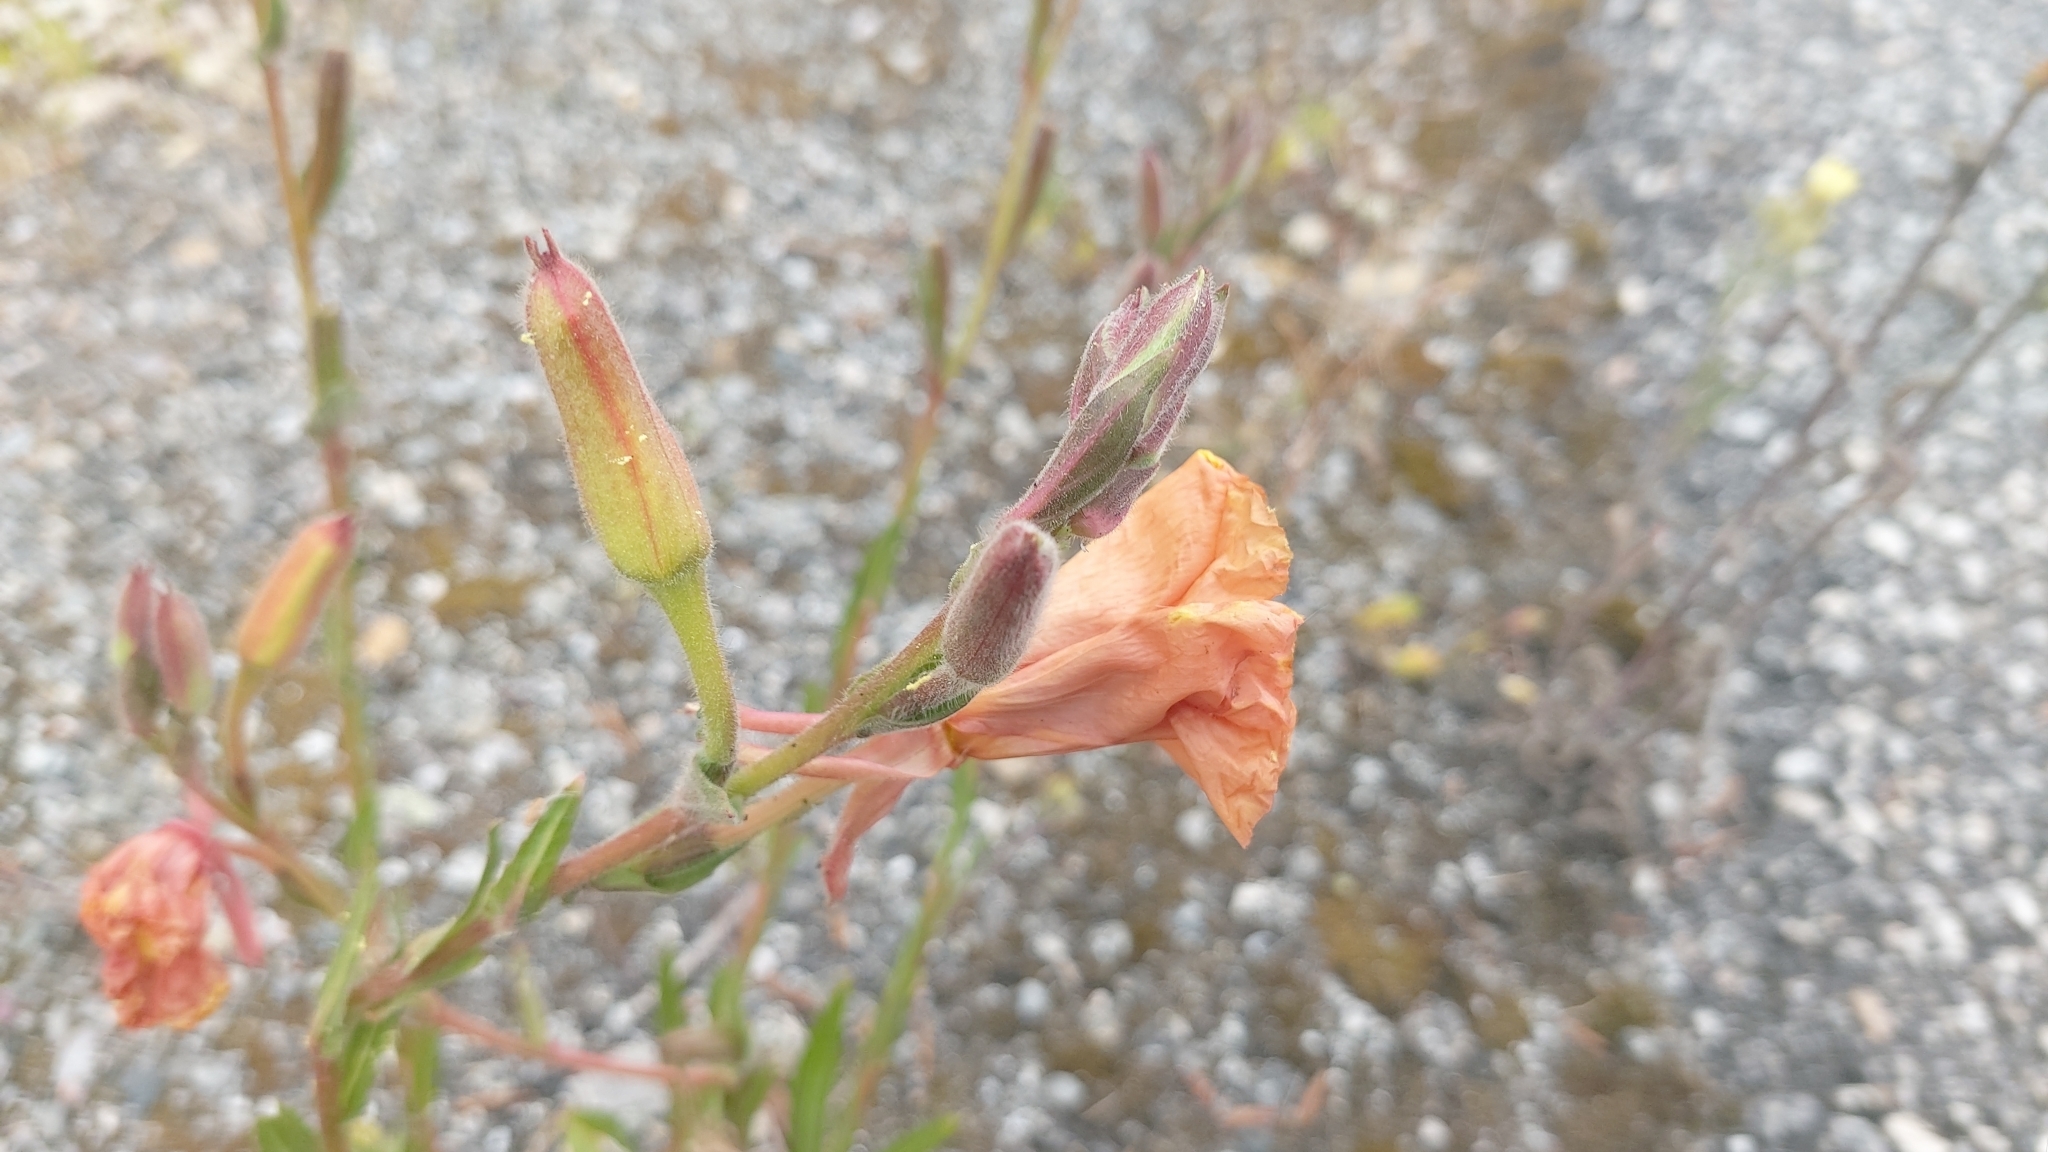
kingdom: Plantae
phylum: Tracheophyta
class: Magnoliopsida
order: Myrtales
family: Onagraceae
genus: Oenothera
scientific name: Oenothera stricta
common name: Fragrant evening-primrose
